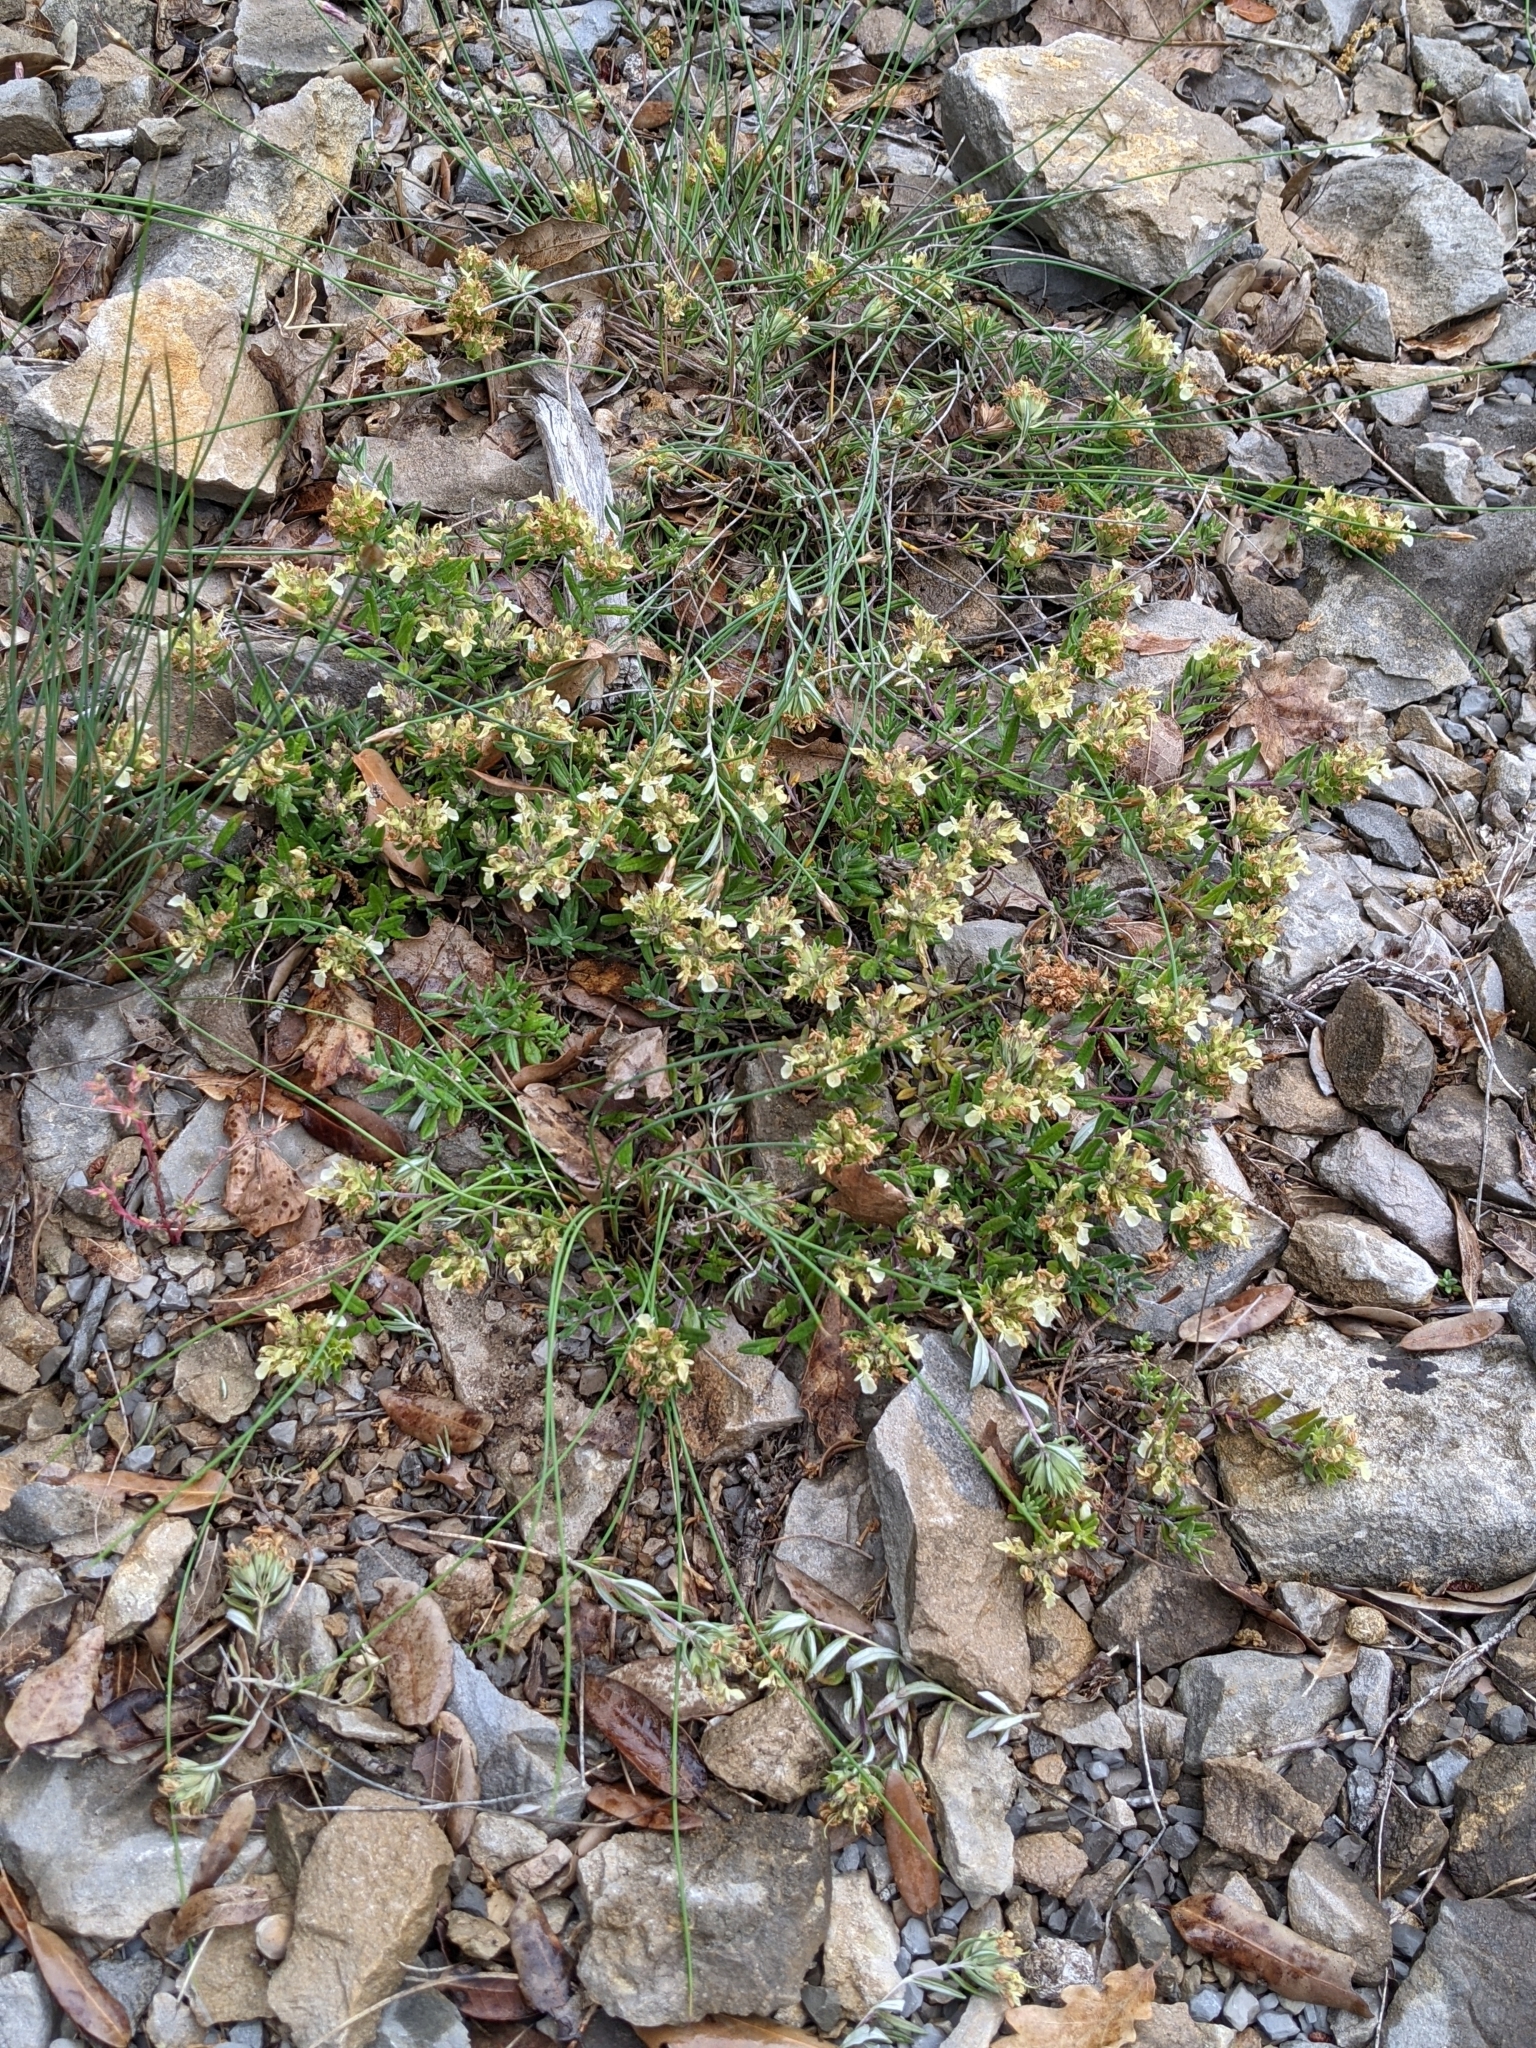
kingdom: Plantae
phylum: Tracheophyta
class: Magnoliopsida
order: Lamiales
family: Lamiaceae
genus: Teucrium
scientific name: Teucrium montanum
